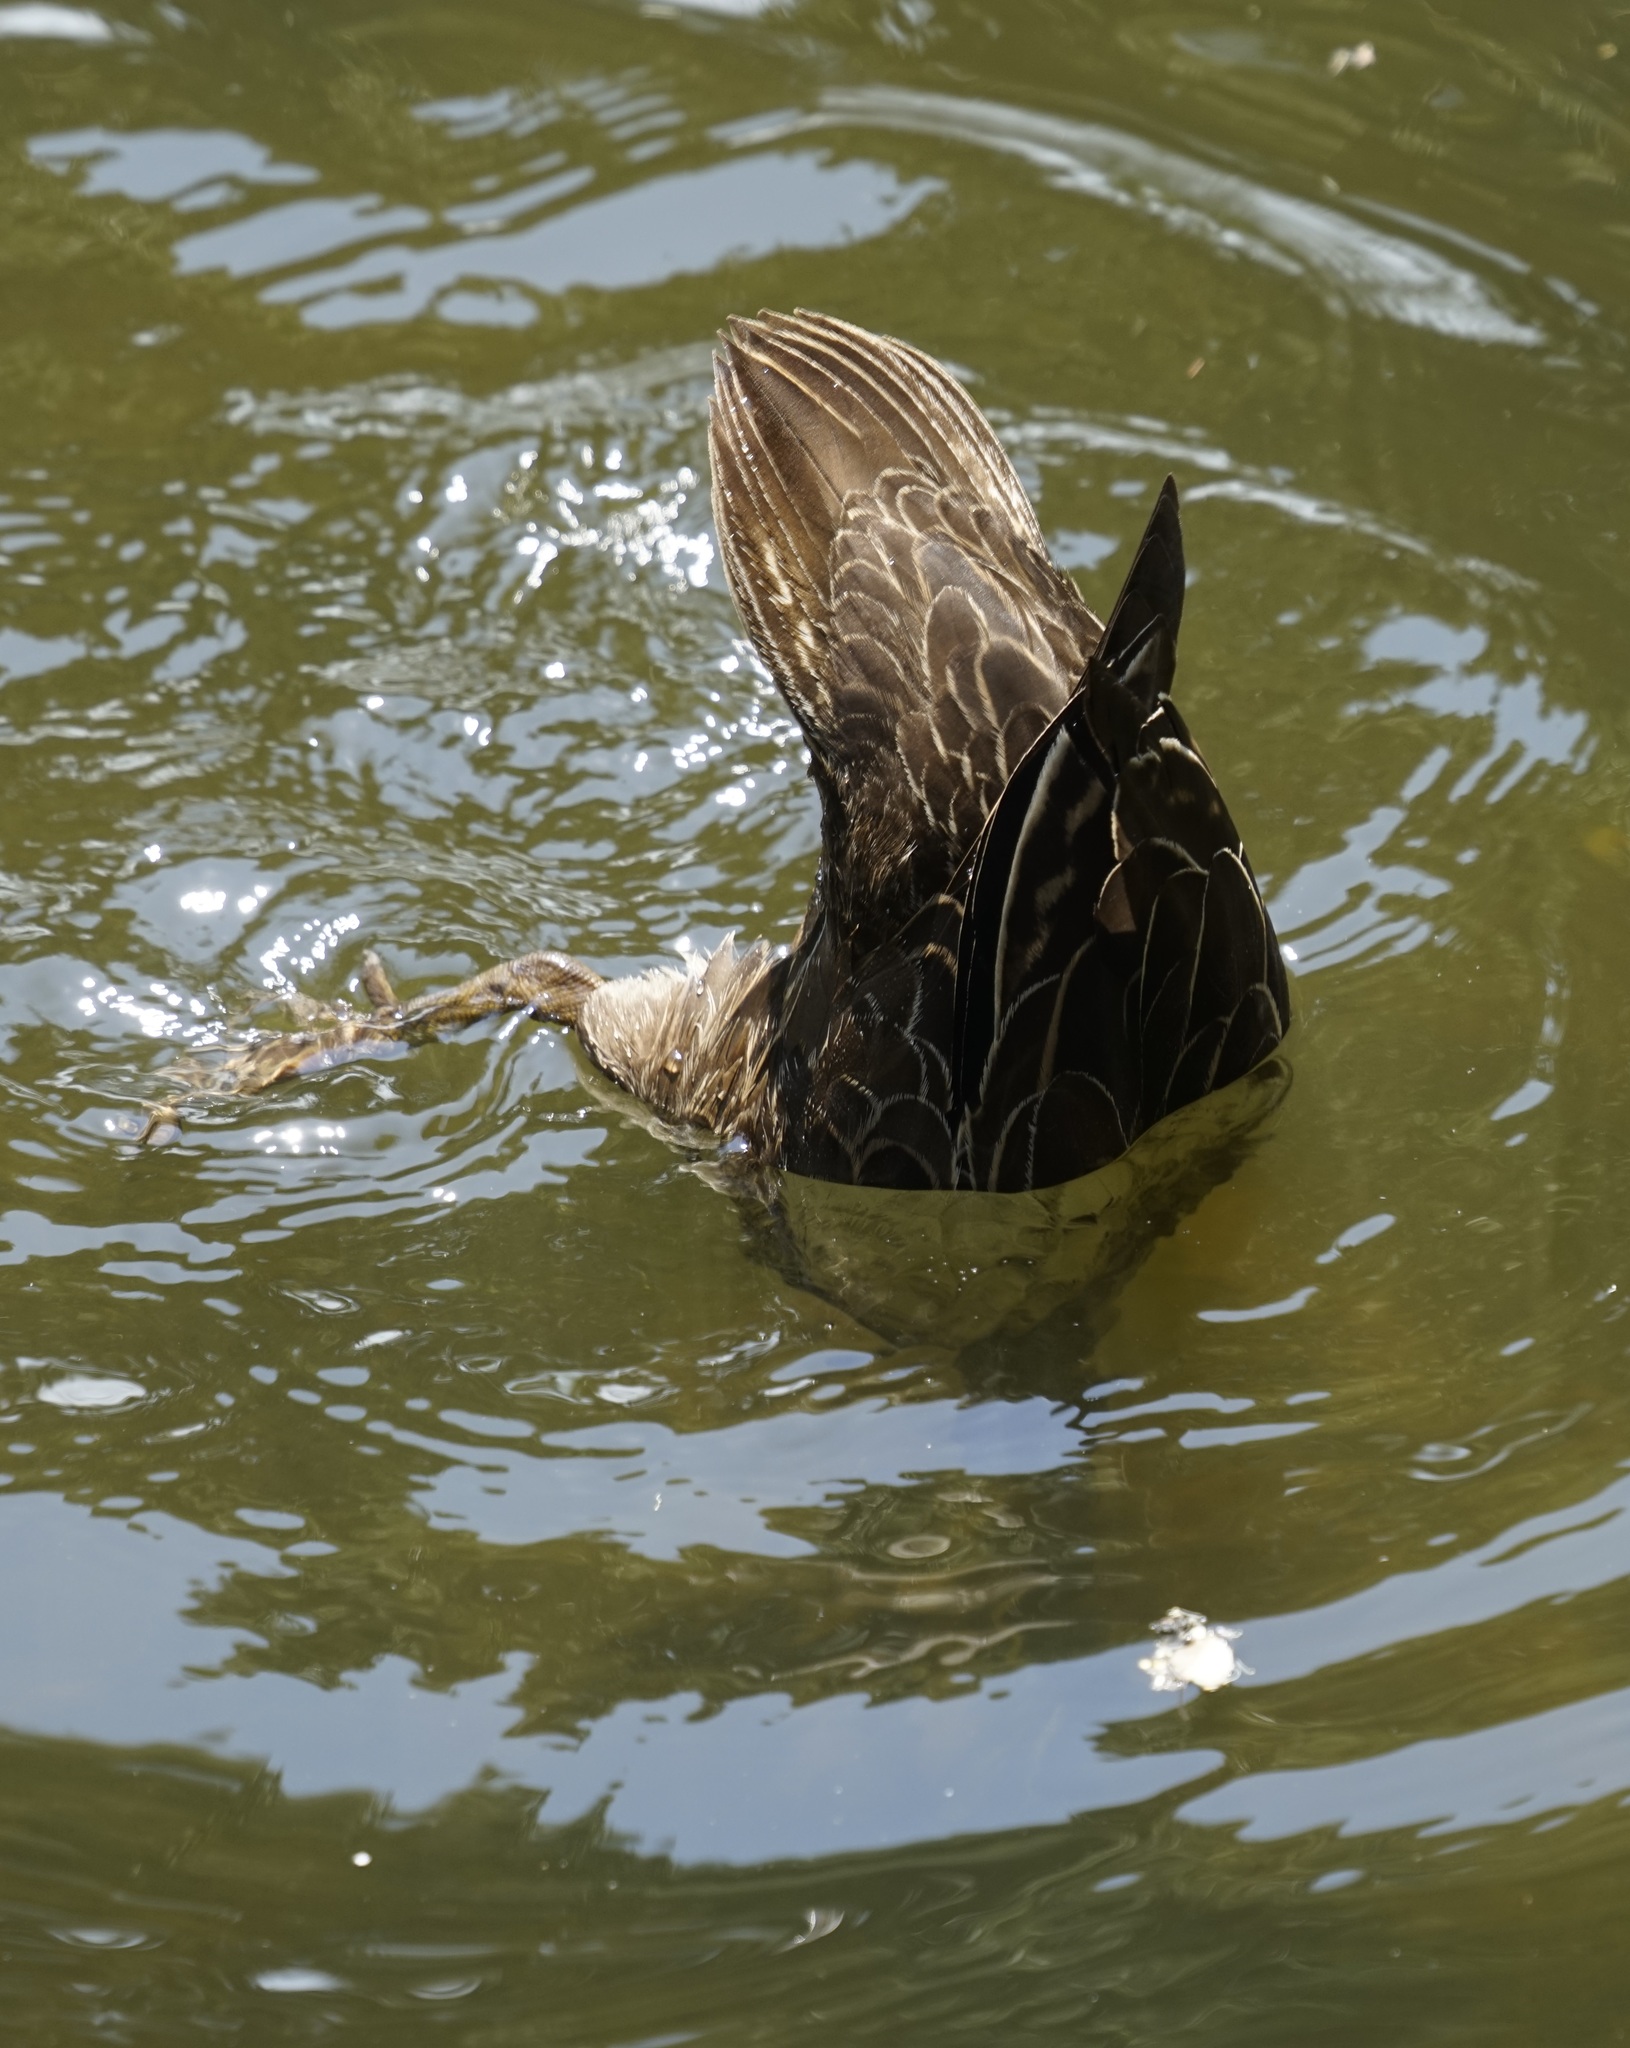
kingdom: Animalia
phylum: Chordata
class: Aves
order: Anseriformes
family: Anatidae
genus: Anas
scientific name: Anas superciliosa
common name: Pacific black duck
